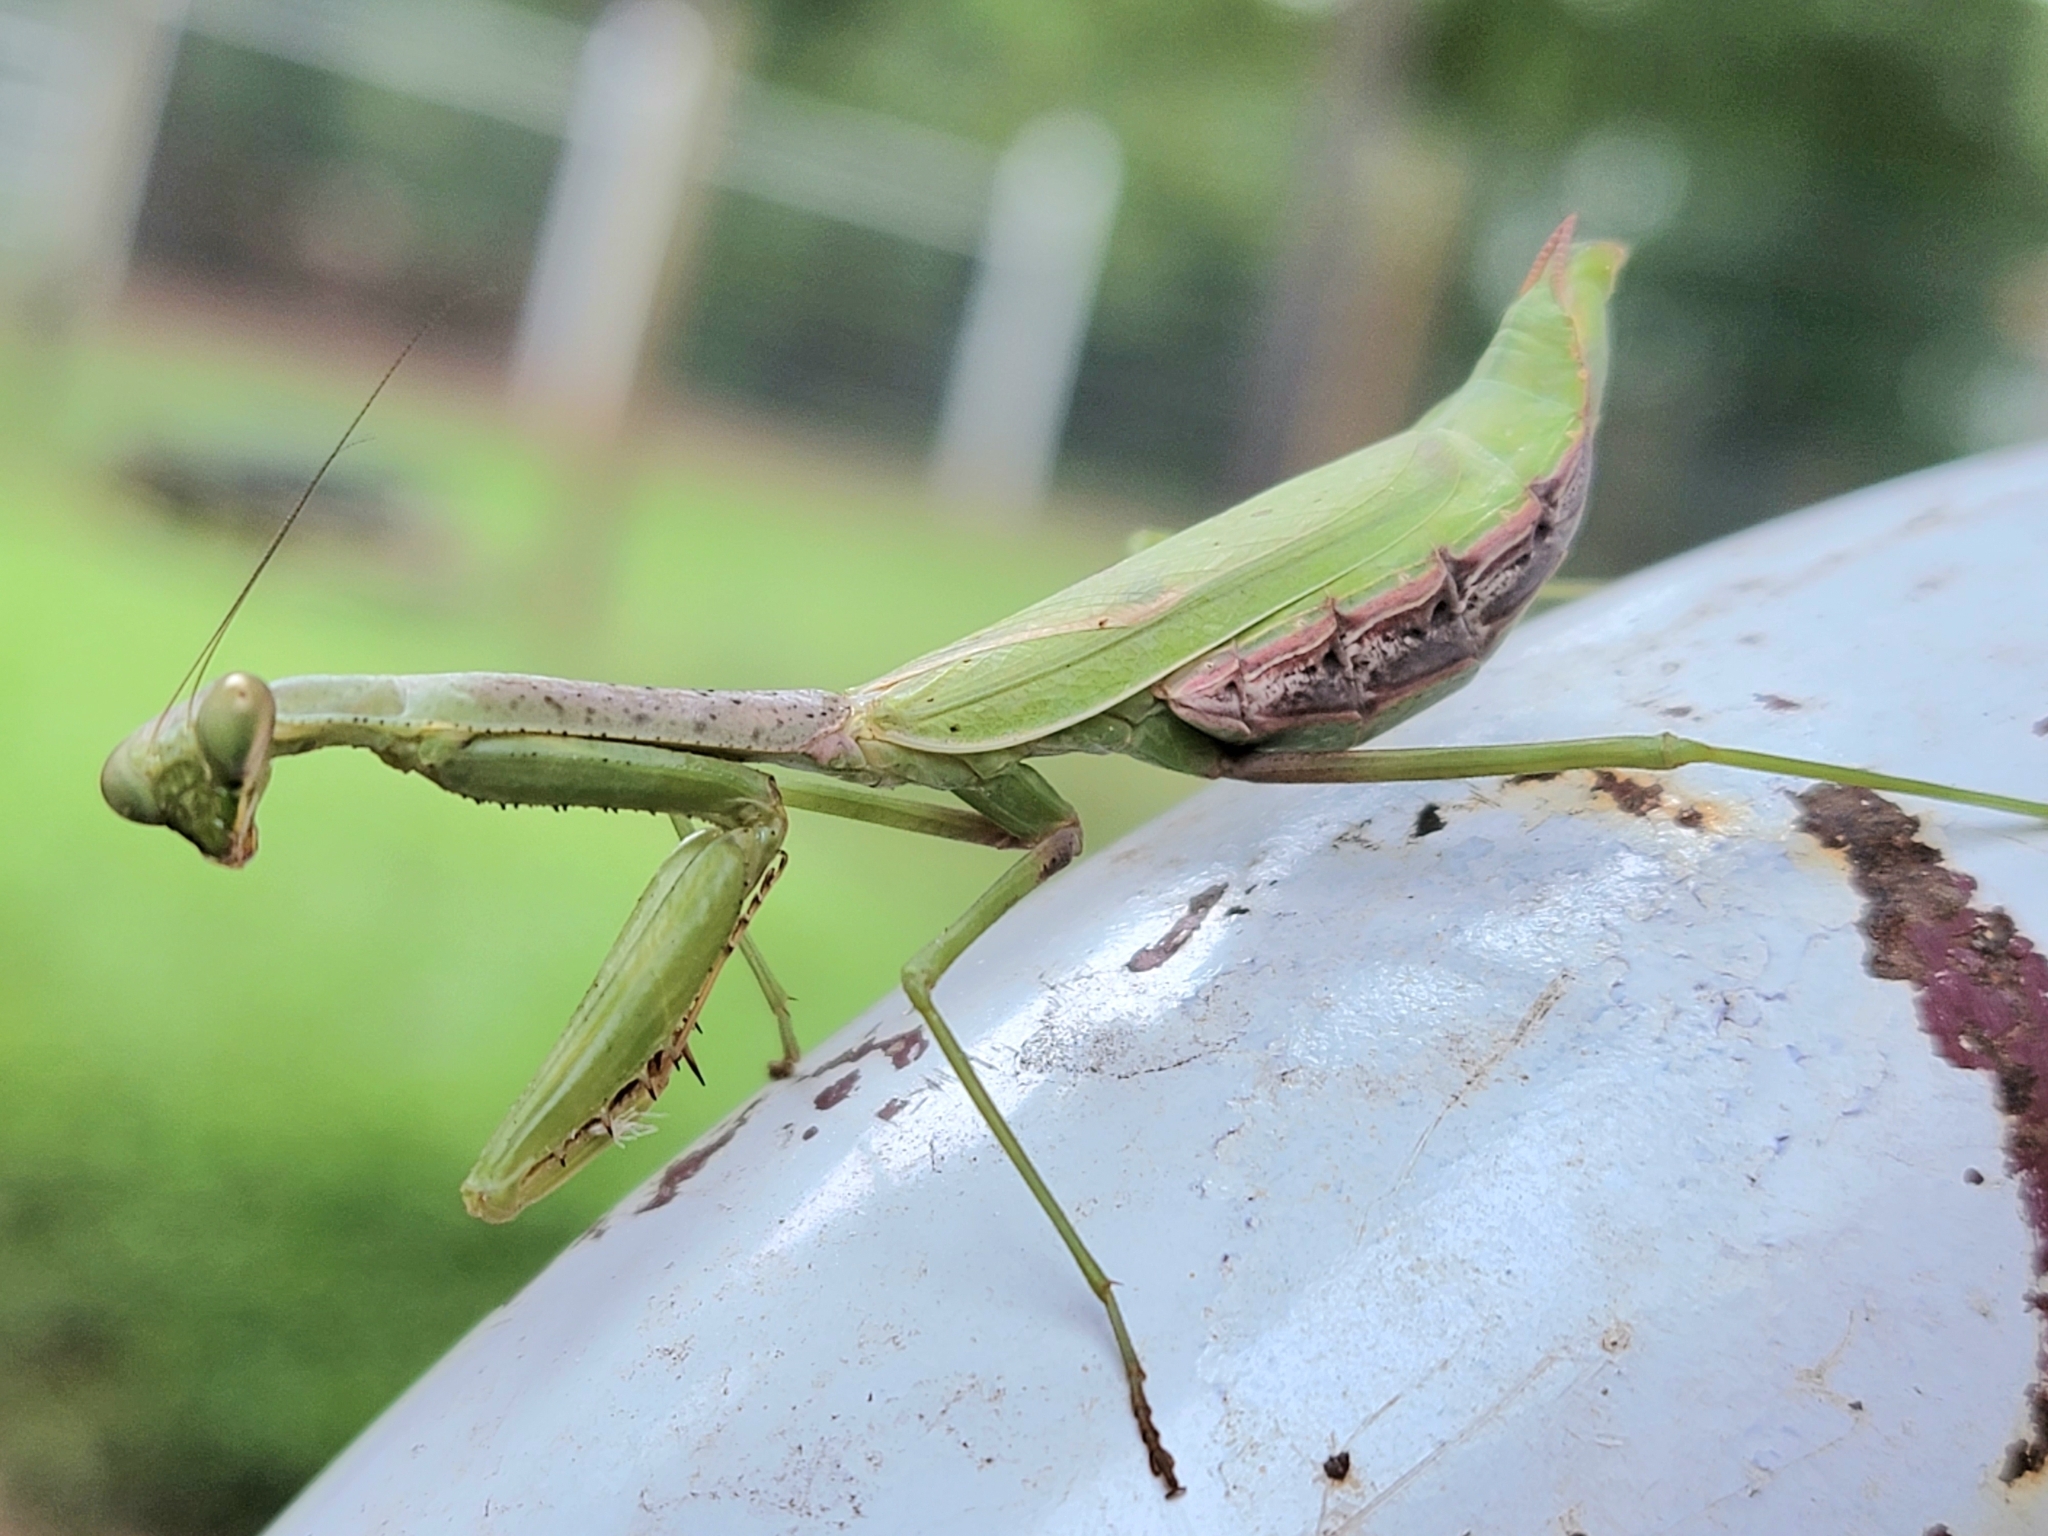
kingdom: Animalia
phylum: Arthropoda
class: Insecta
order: Mantodea
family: Mantidae
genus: Stagmomantis
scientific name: Stagmomantis carolina
